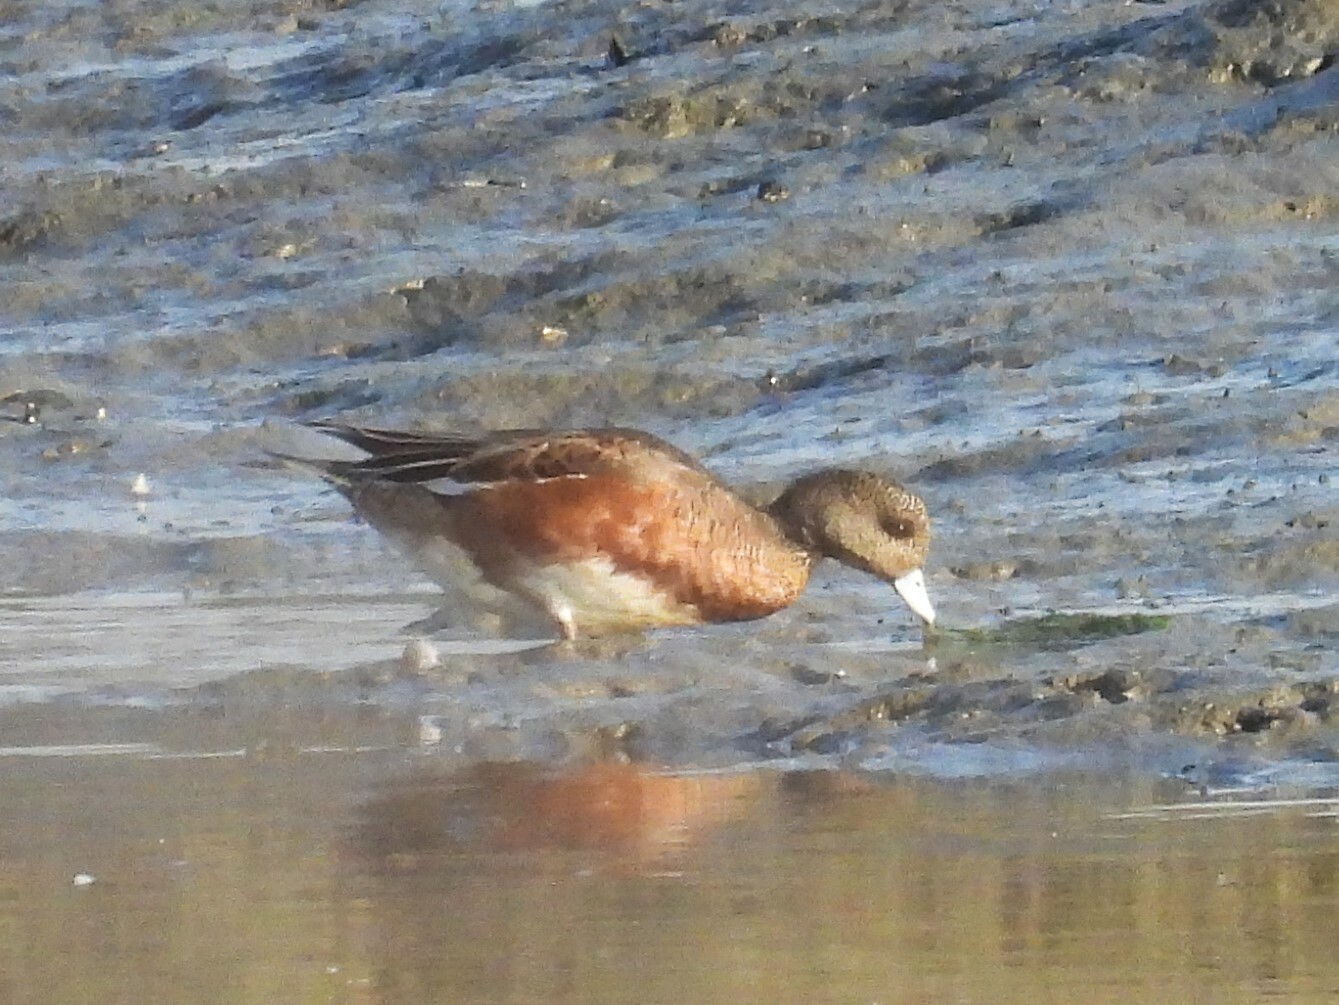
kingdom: Animalia
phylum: Chordata
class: Aves
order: Anseriformes
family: Anatidae
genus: Mareca
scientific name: Mareca americana
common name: American wigeon
